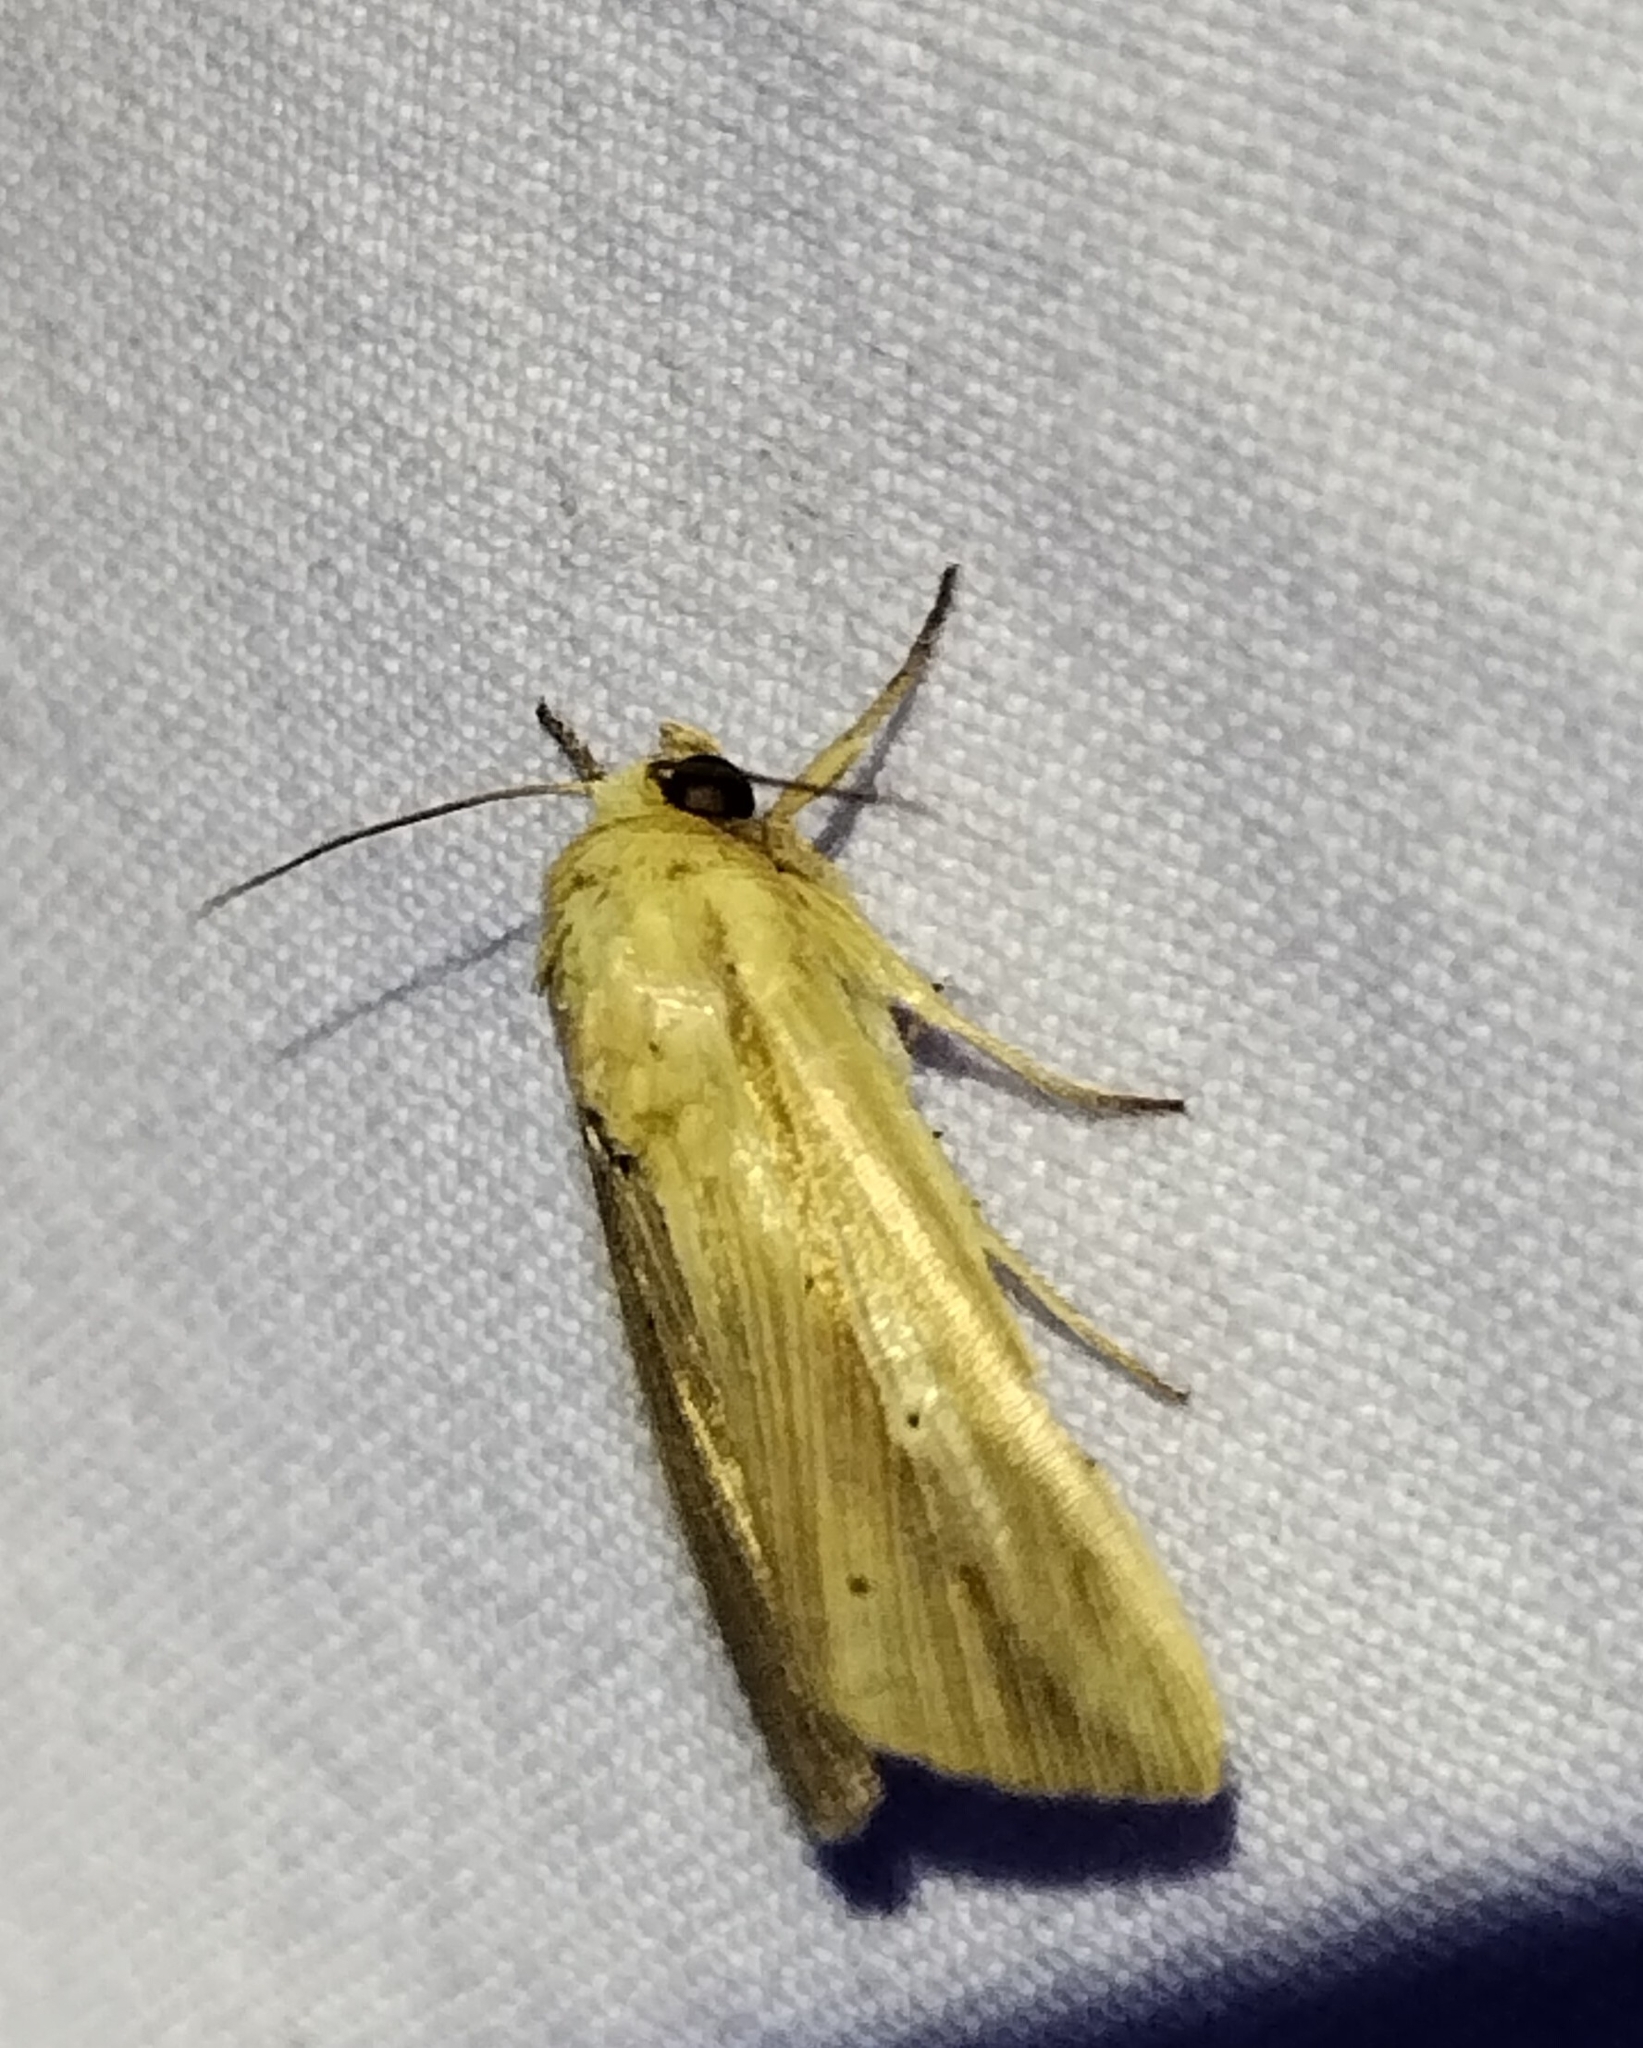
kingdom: Animalia
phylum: Arthropoda
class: Insecta
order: Lepidoptera
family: Noctuidae
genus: Leucania
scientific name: Leucania adjuta
